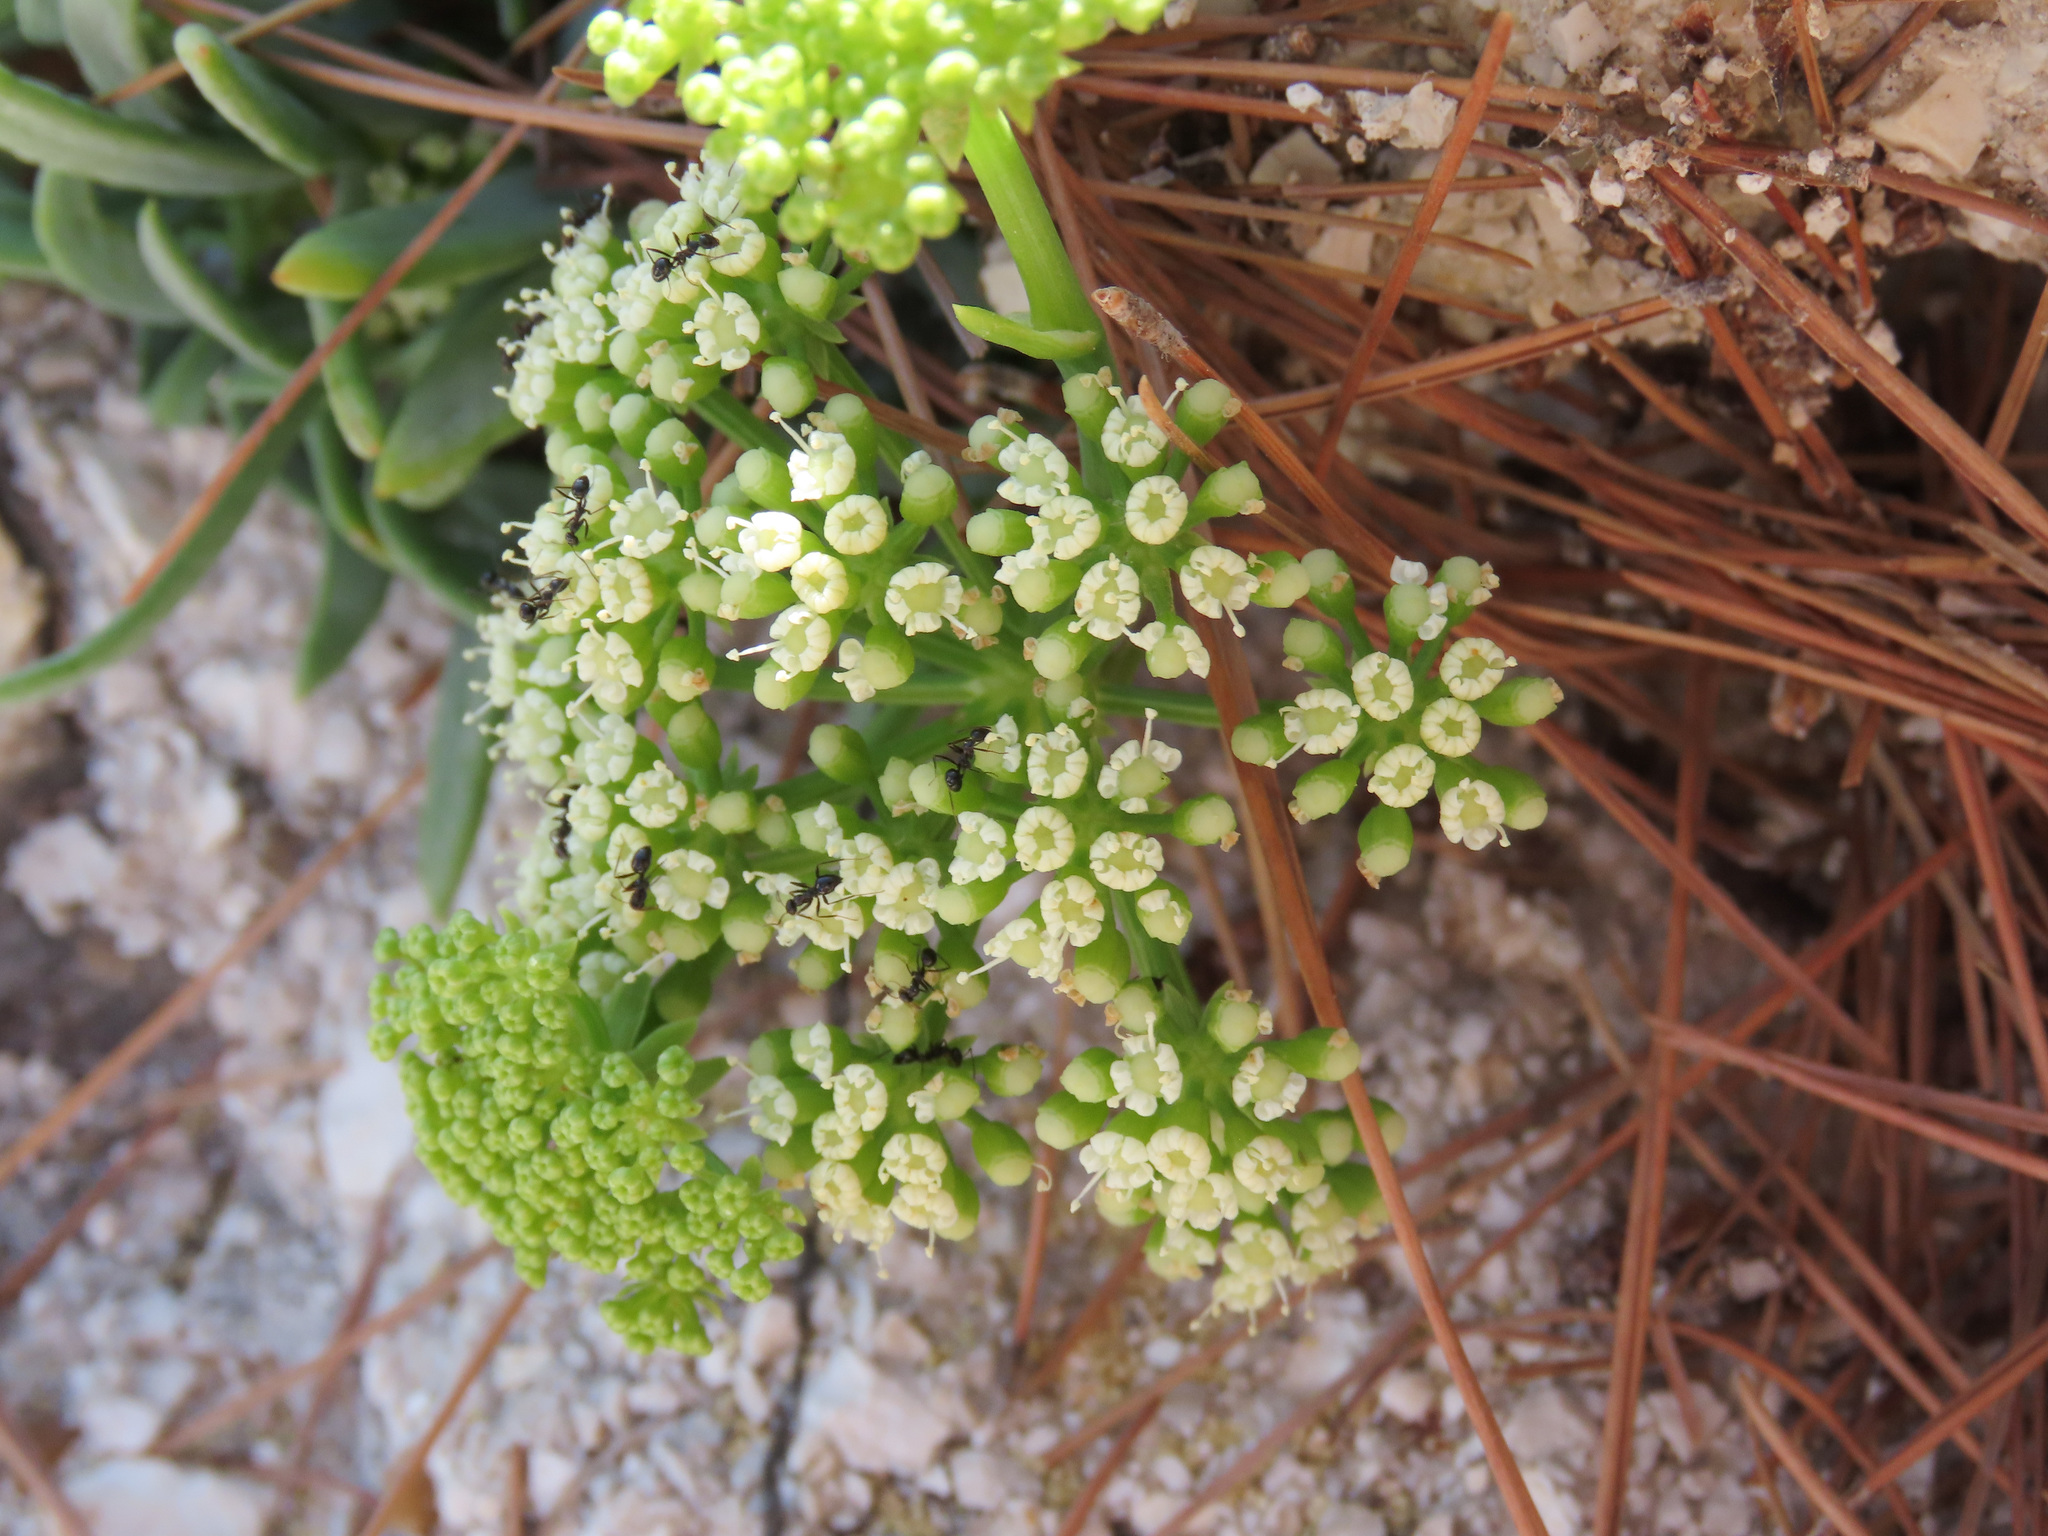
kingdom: Plantae
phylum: Tracheophyta
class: Magnoliopsida
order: Apiales
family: Apiaceae
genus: Crithmum
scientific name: Crithmum maritimum
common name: Rock samphire
